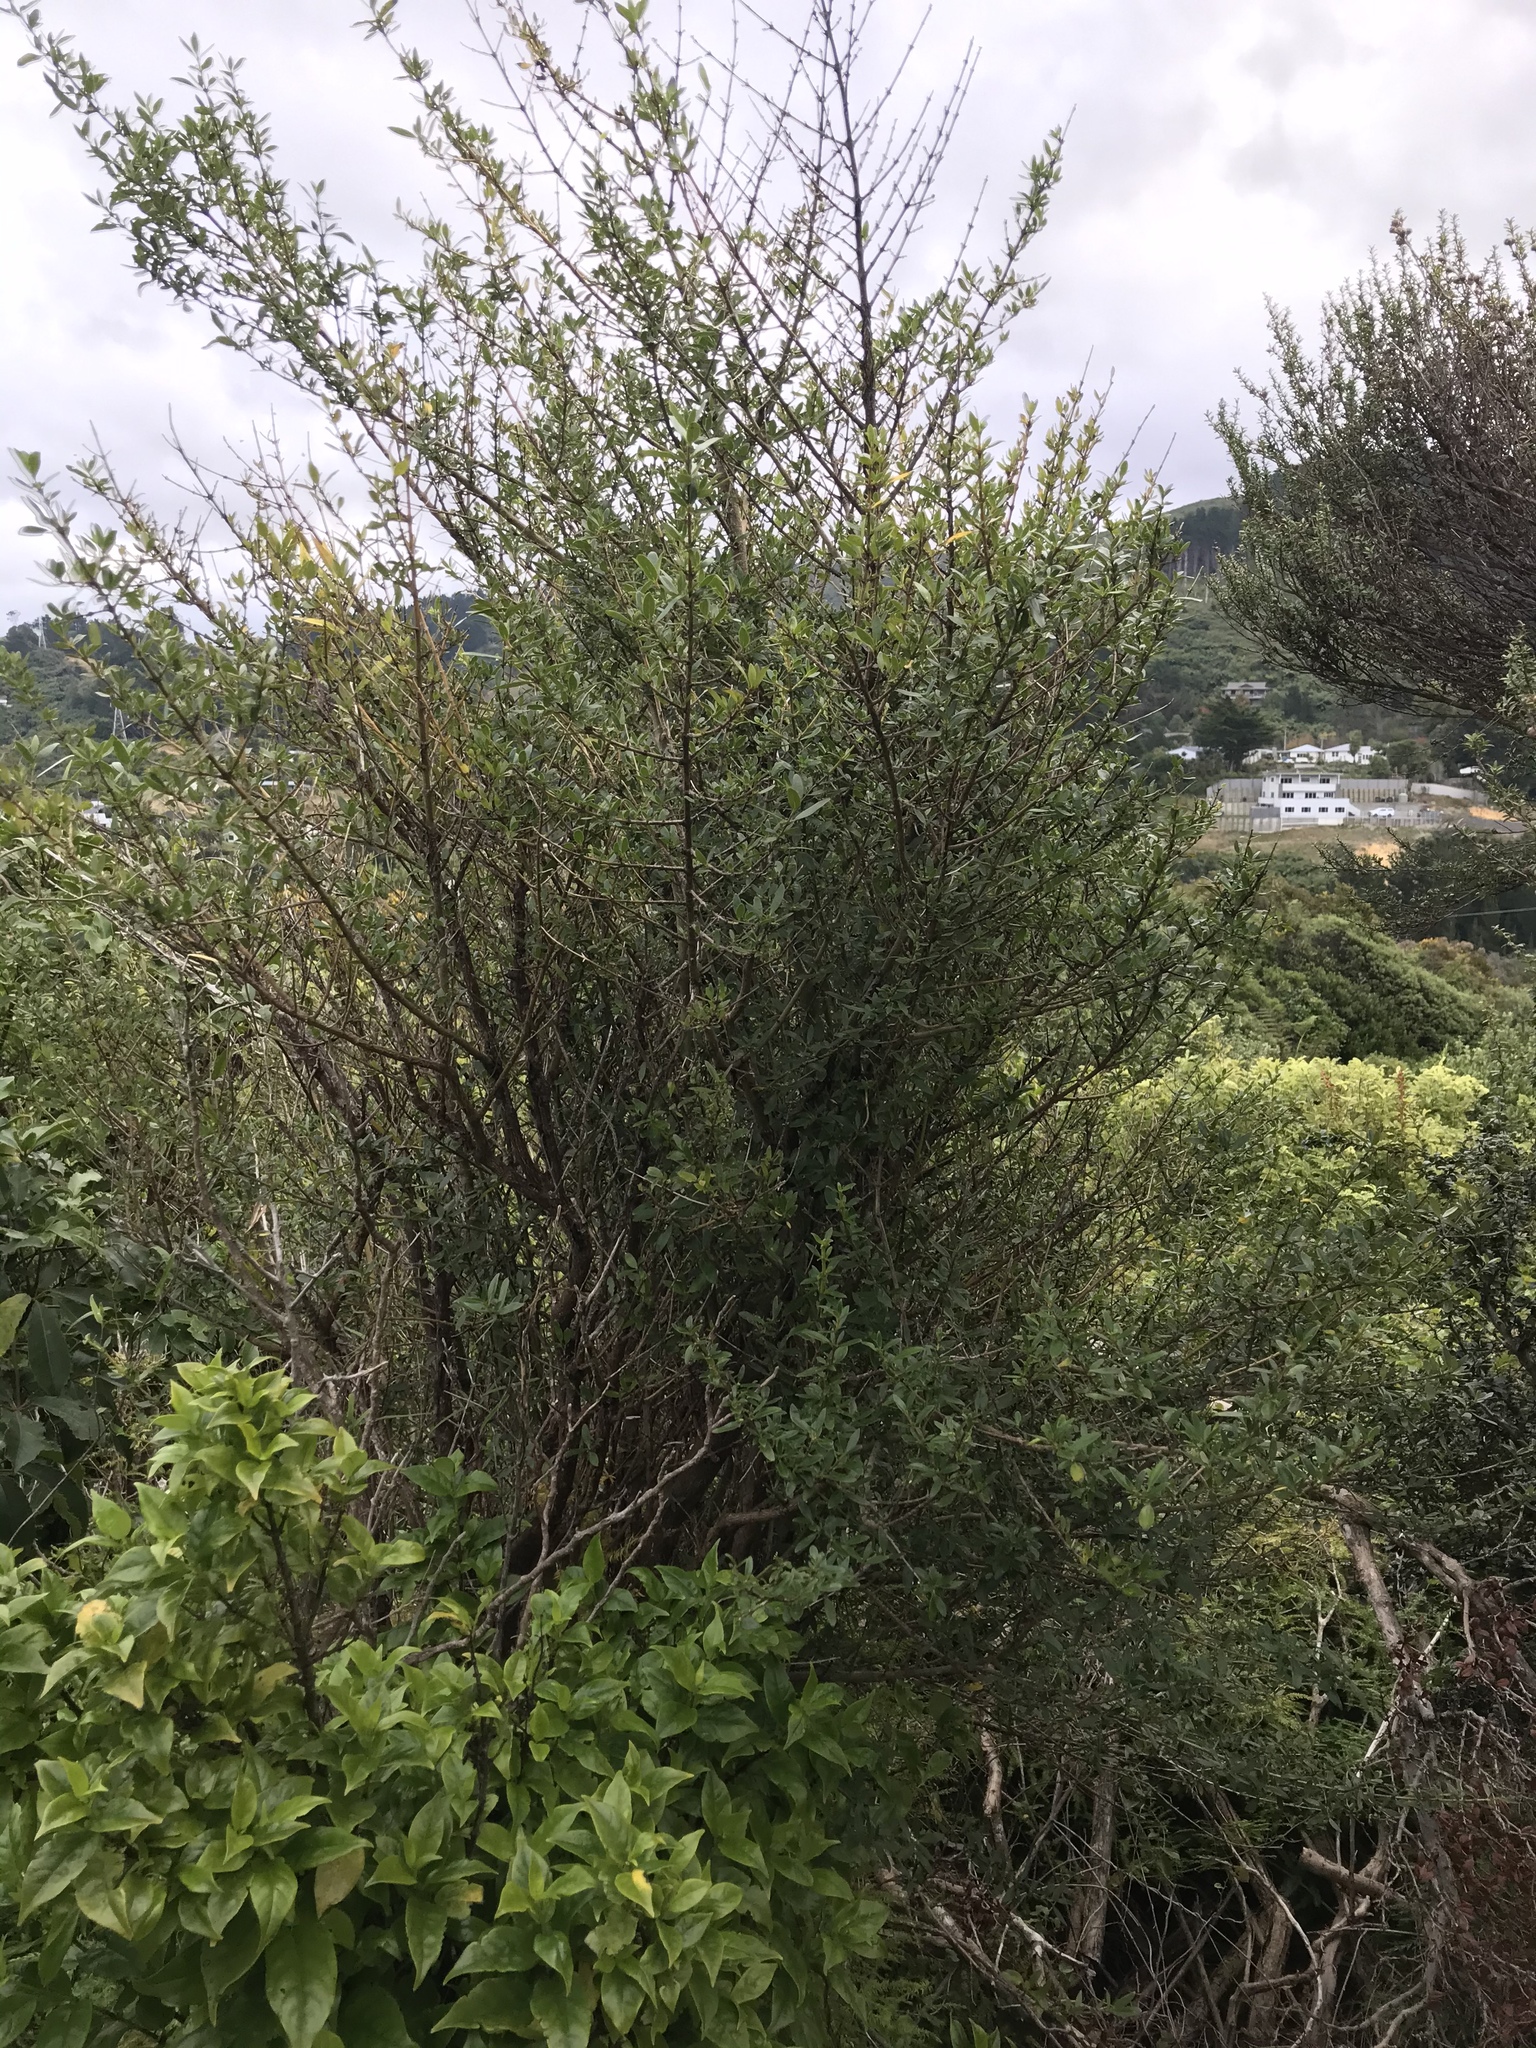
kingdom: Plantae
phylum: Tracheophyta
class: Magnoliopsida
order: Gentianales
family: Rubiaceae
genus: Coprosma
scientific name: Coprosma cunninghamii
